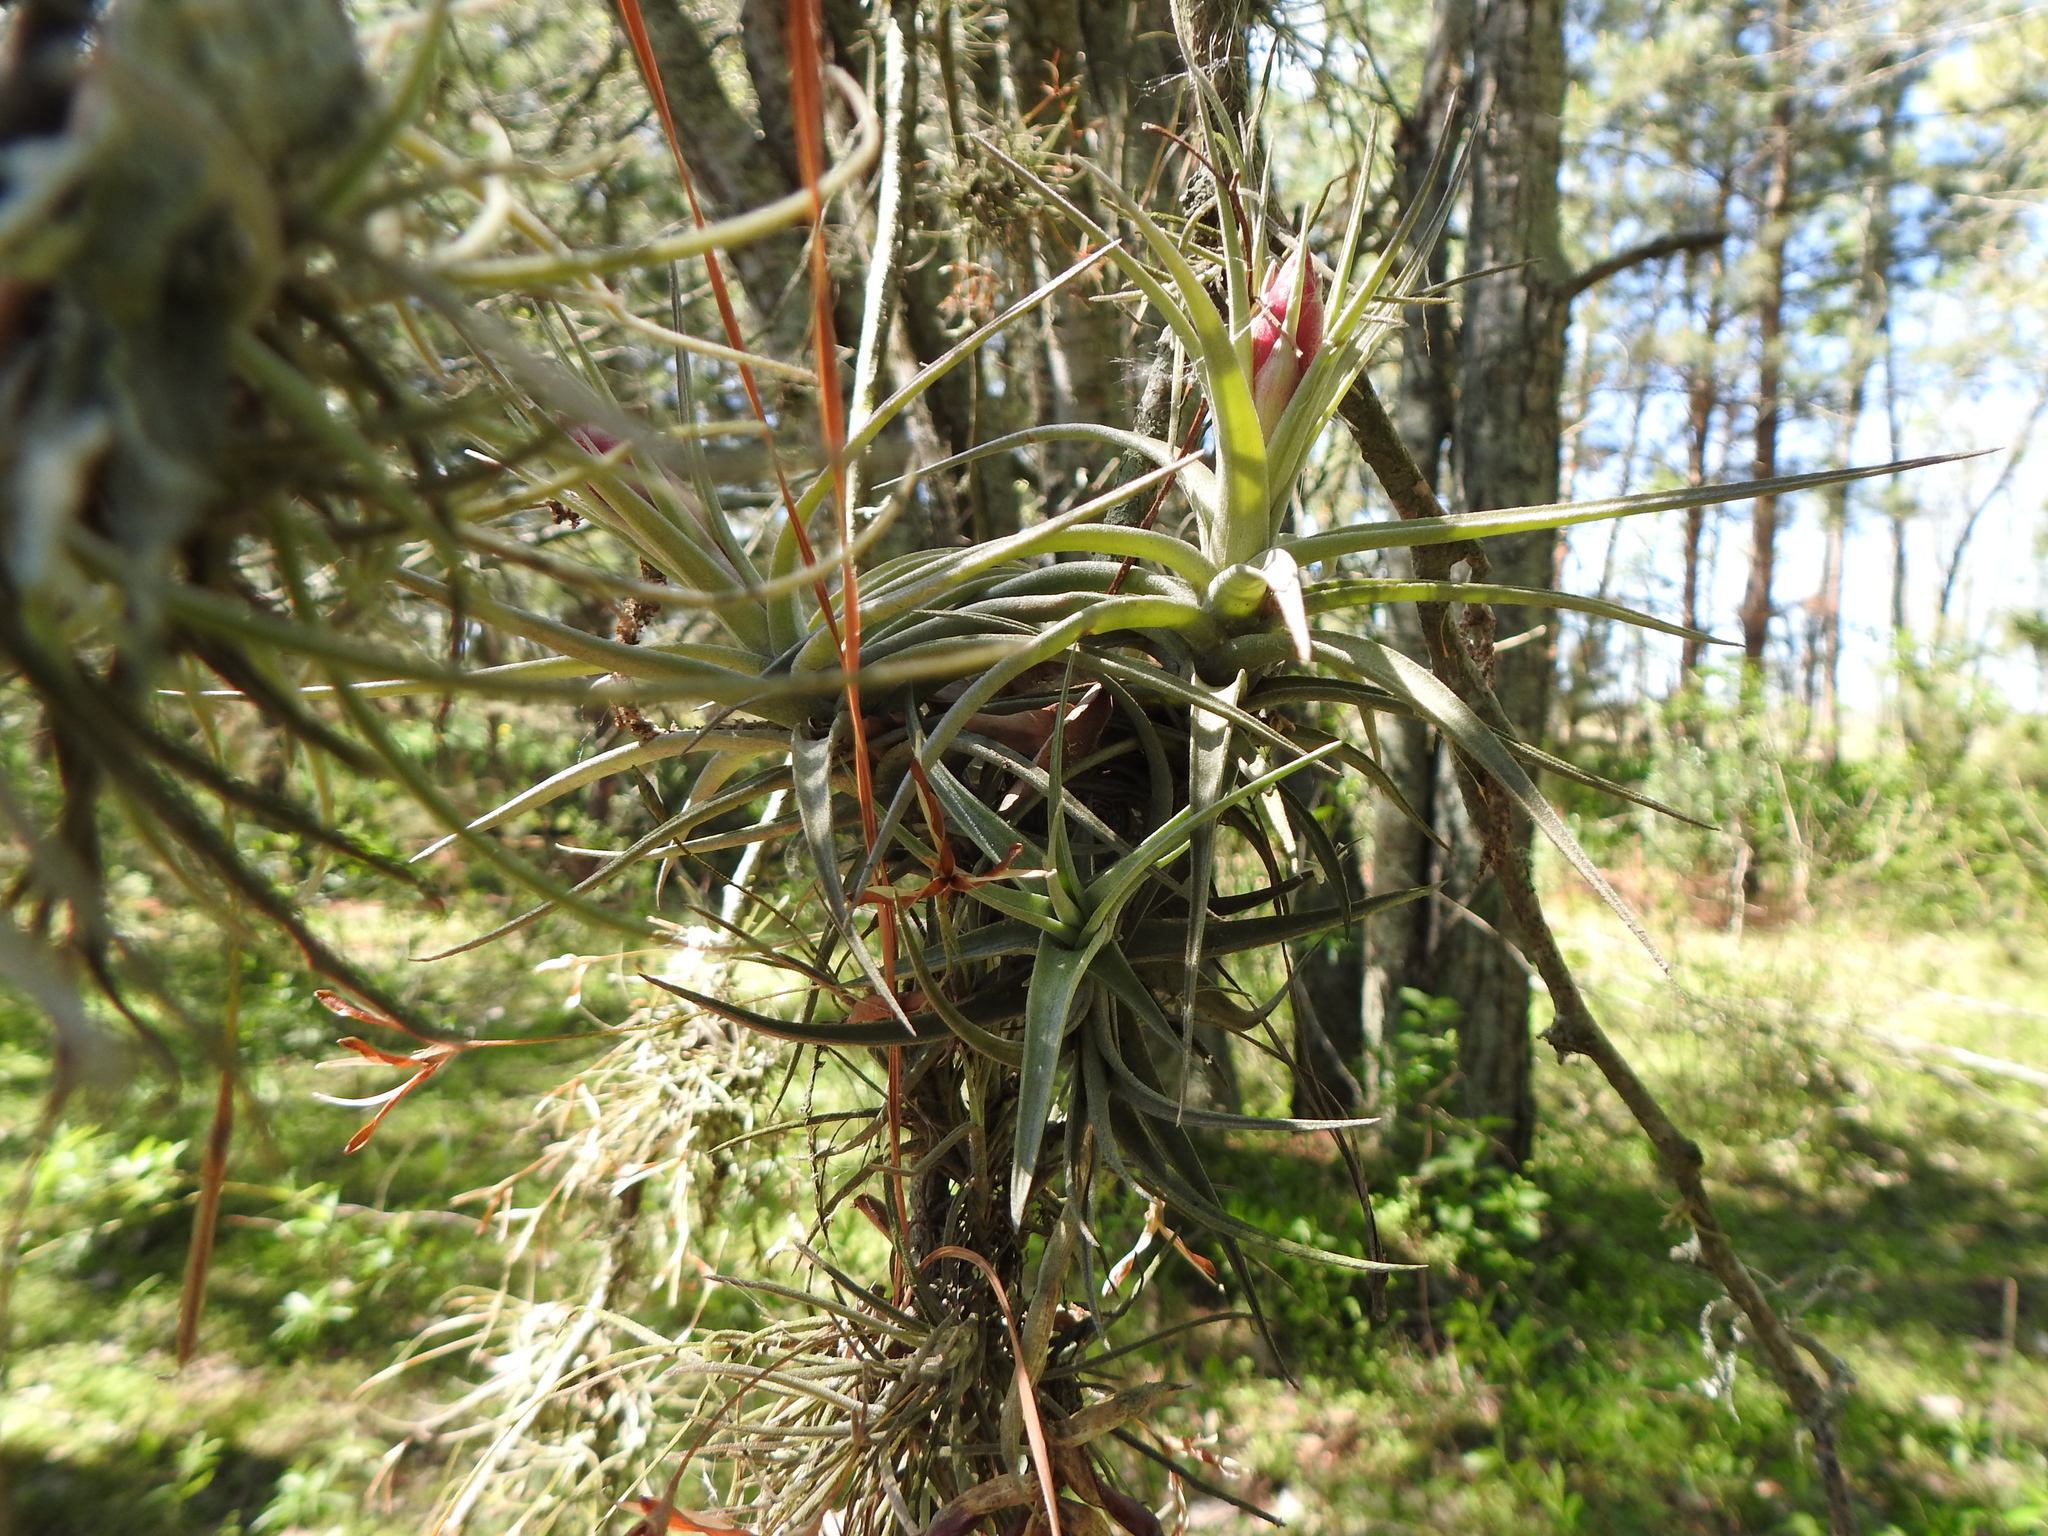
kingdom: Plantae
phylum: Tracheophyta
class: Liliopsida
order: Poales
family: Bromeliaceae
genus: Tillandsia
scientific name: Tillandsia aeranthos
